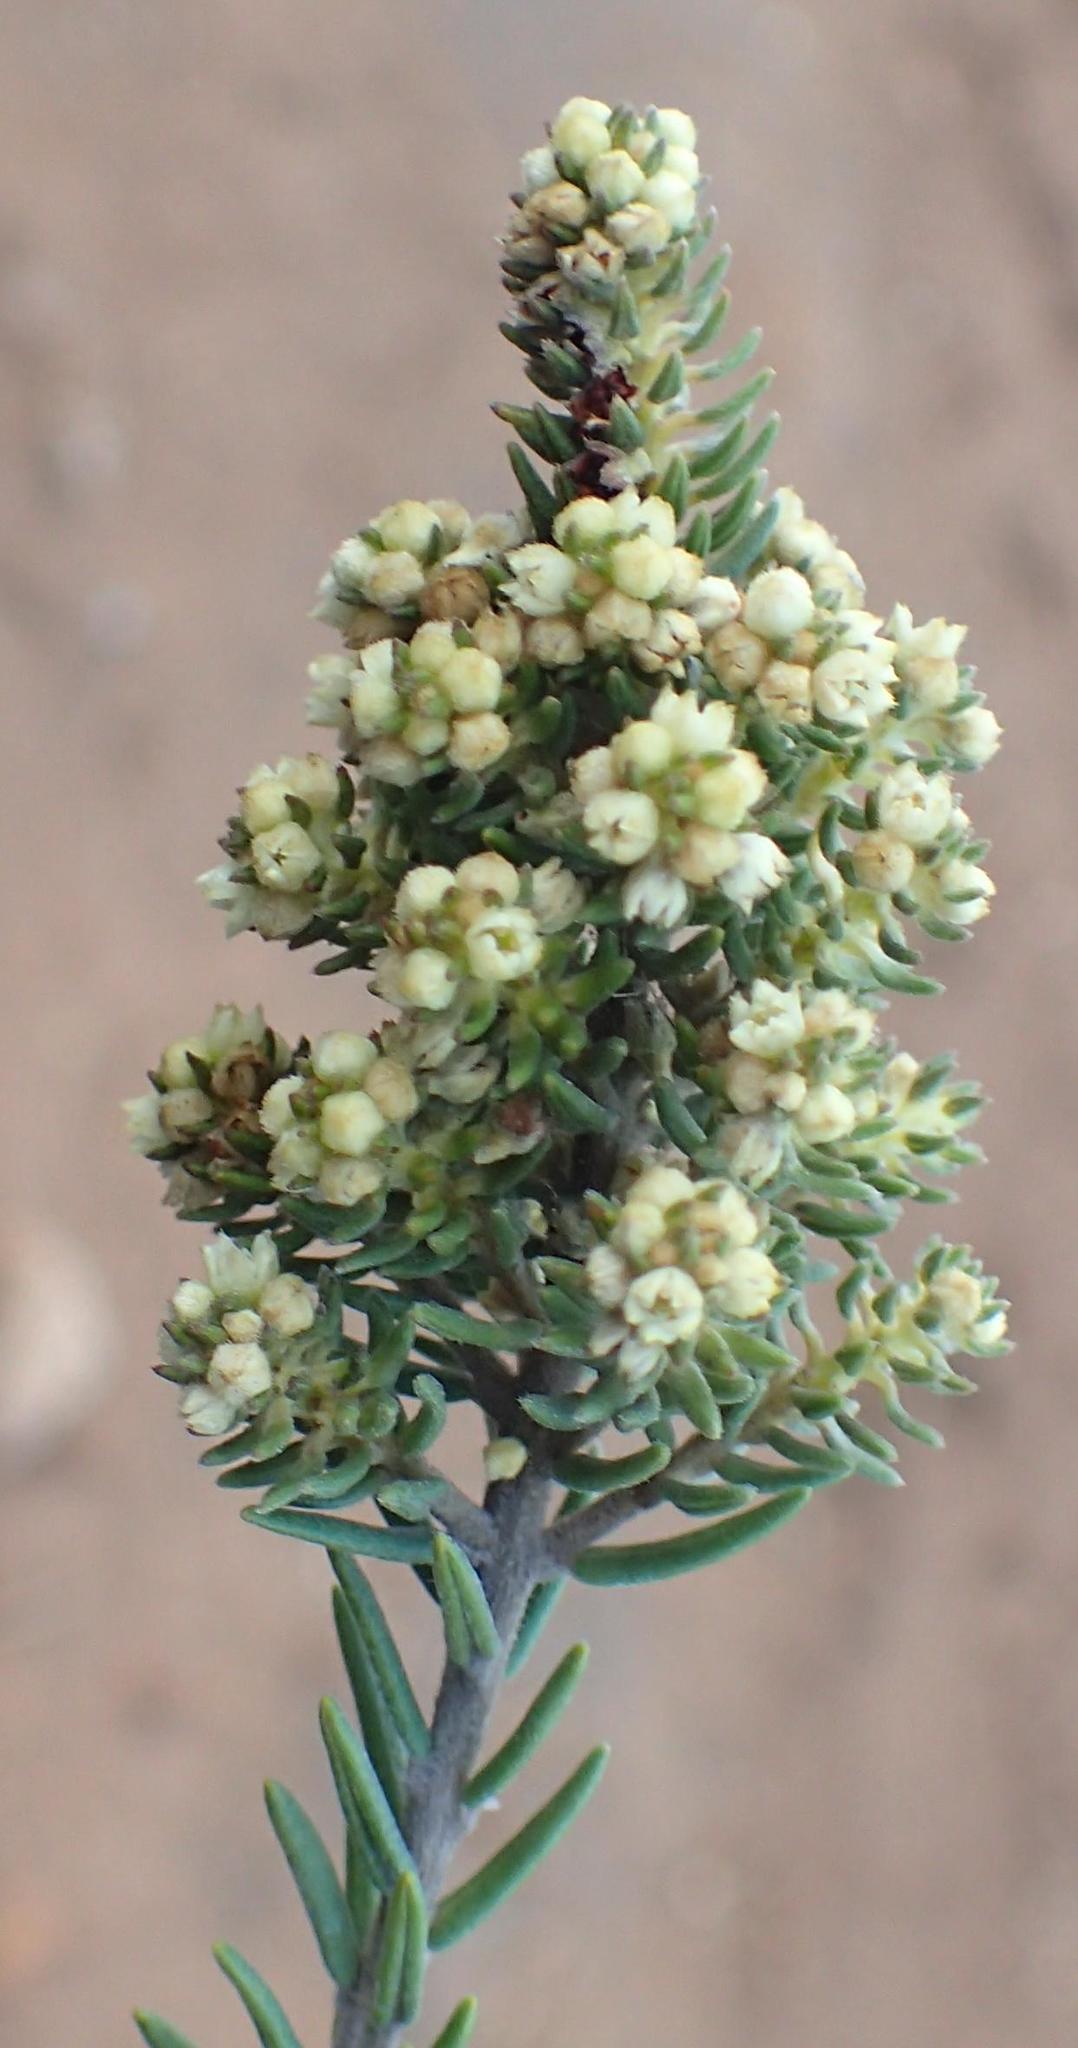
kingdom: Plantae
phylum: Tracheophyta
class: Magnoliopsida
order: Rosales
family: Rhamnaceae
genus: Phylica
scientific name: Phylica axillaris
